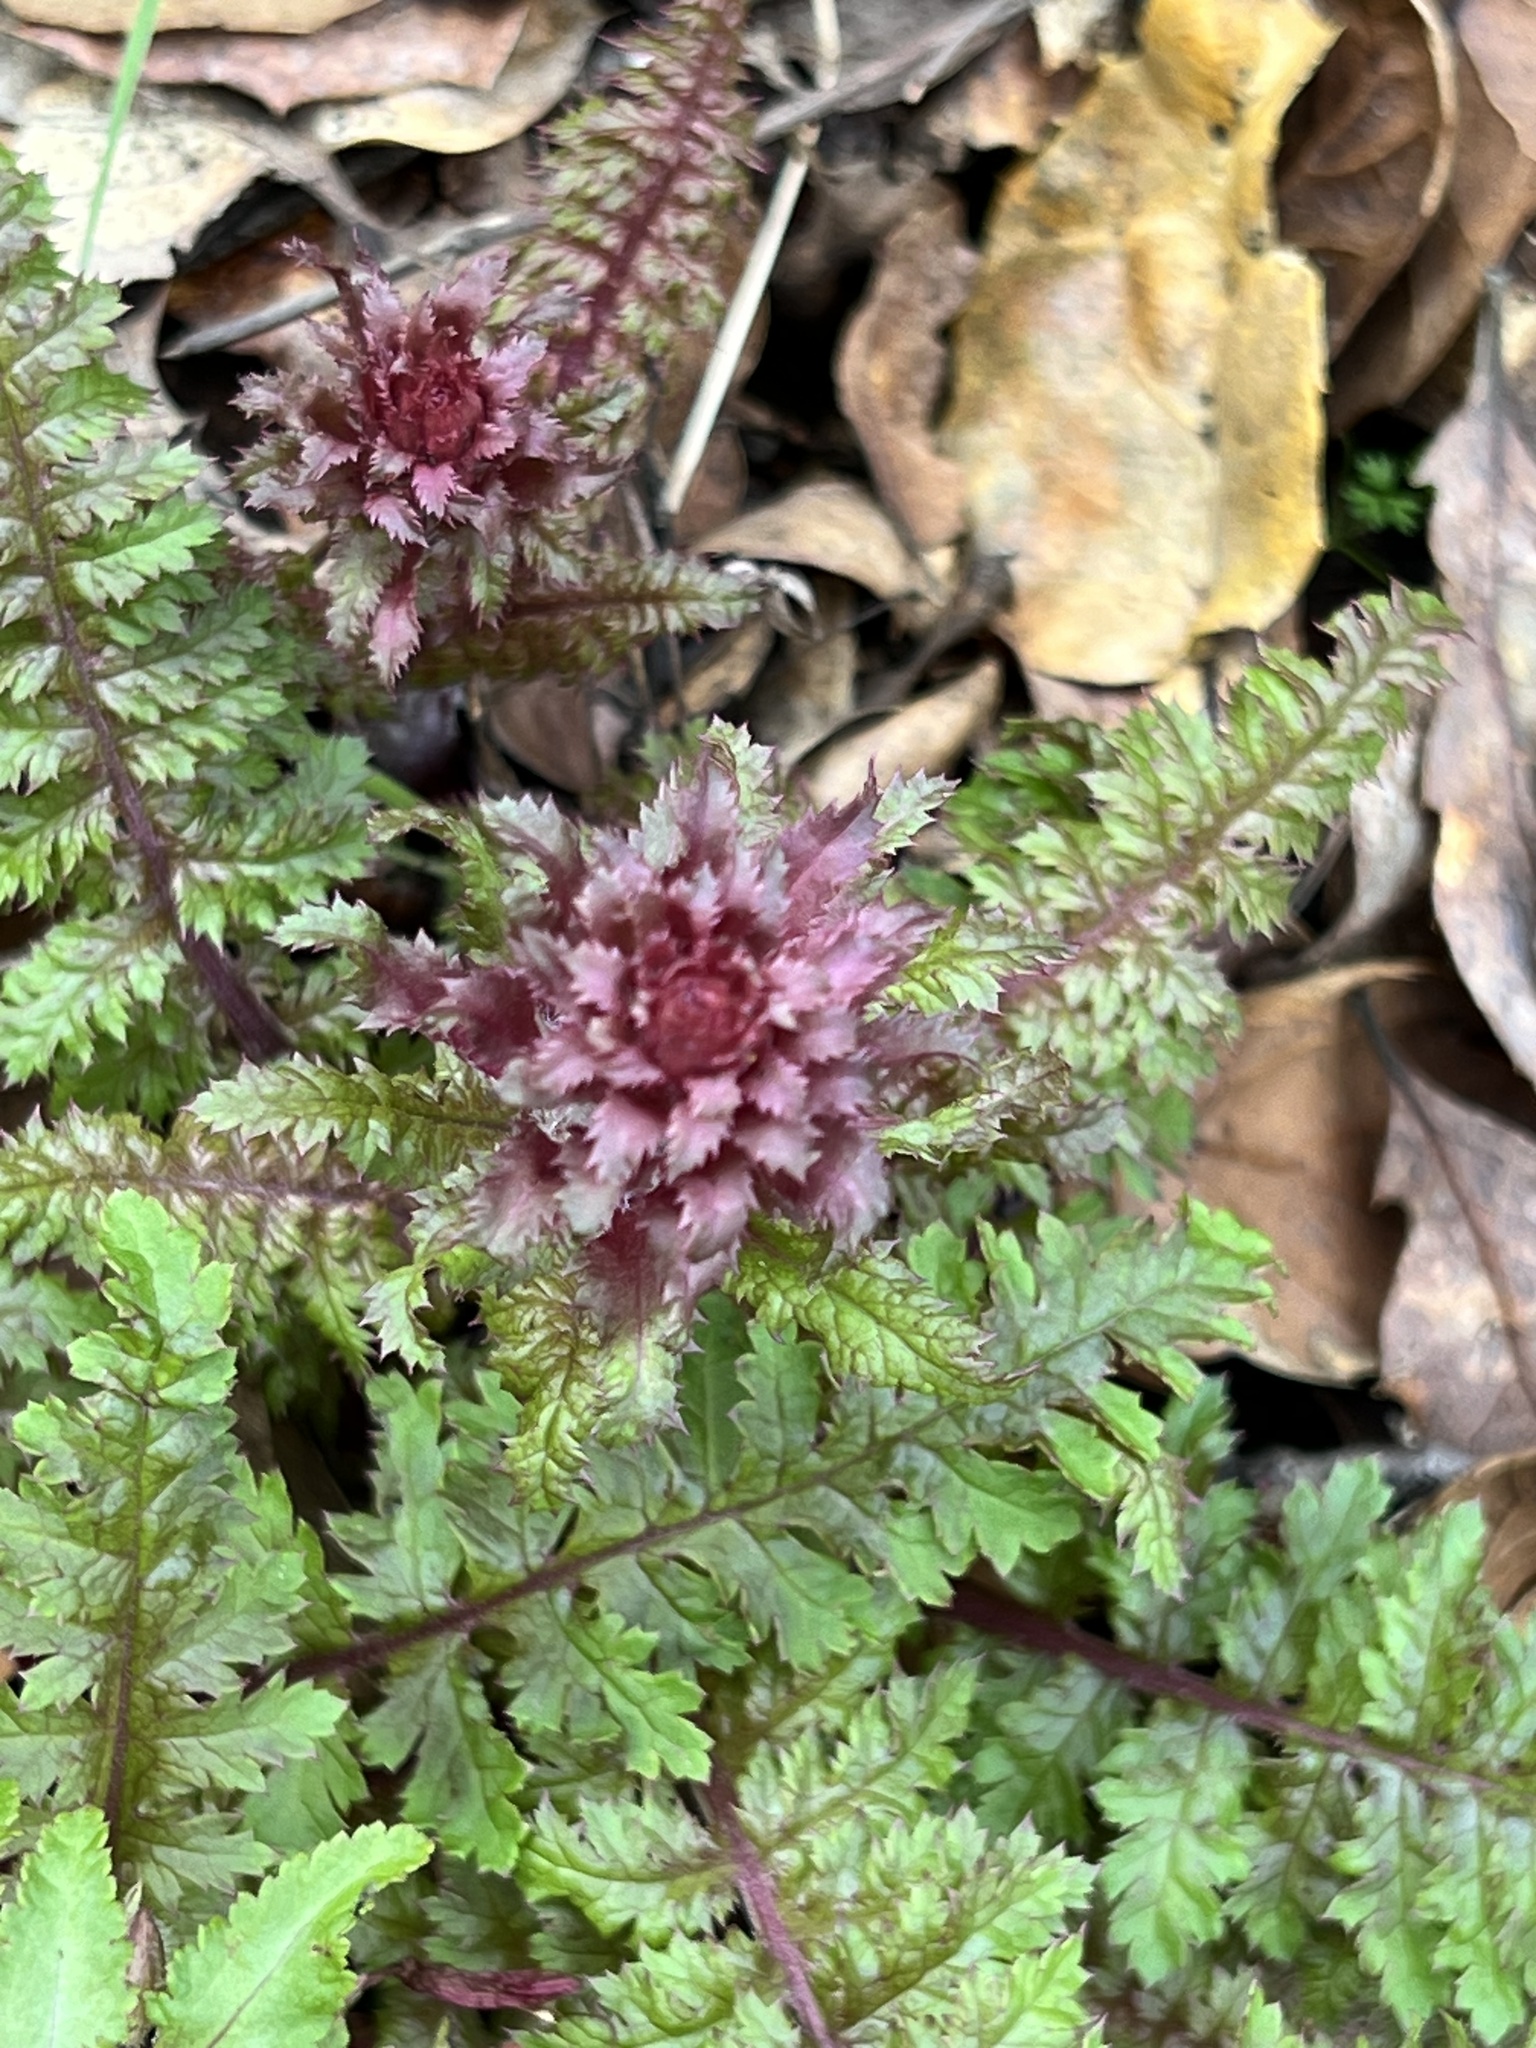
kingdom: Plantae
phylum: Tracheophyta
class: Magnoliopsida
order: Lamiales
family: Orobanchaceae
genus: Pedicularis
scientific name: Pedicularis densiflora
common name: Indian warrior
